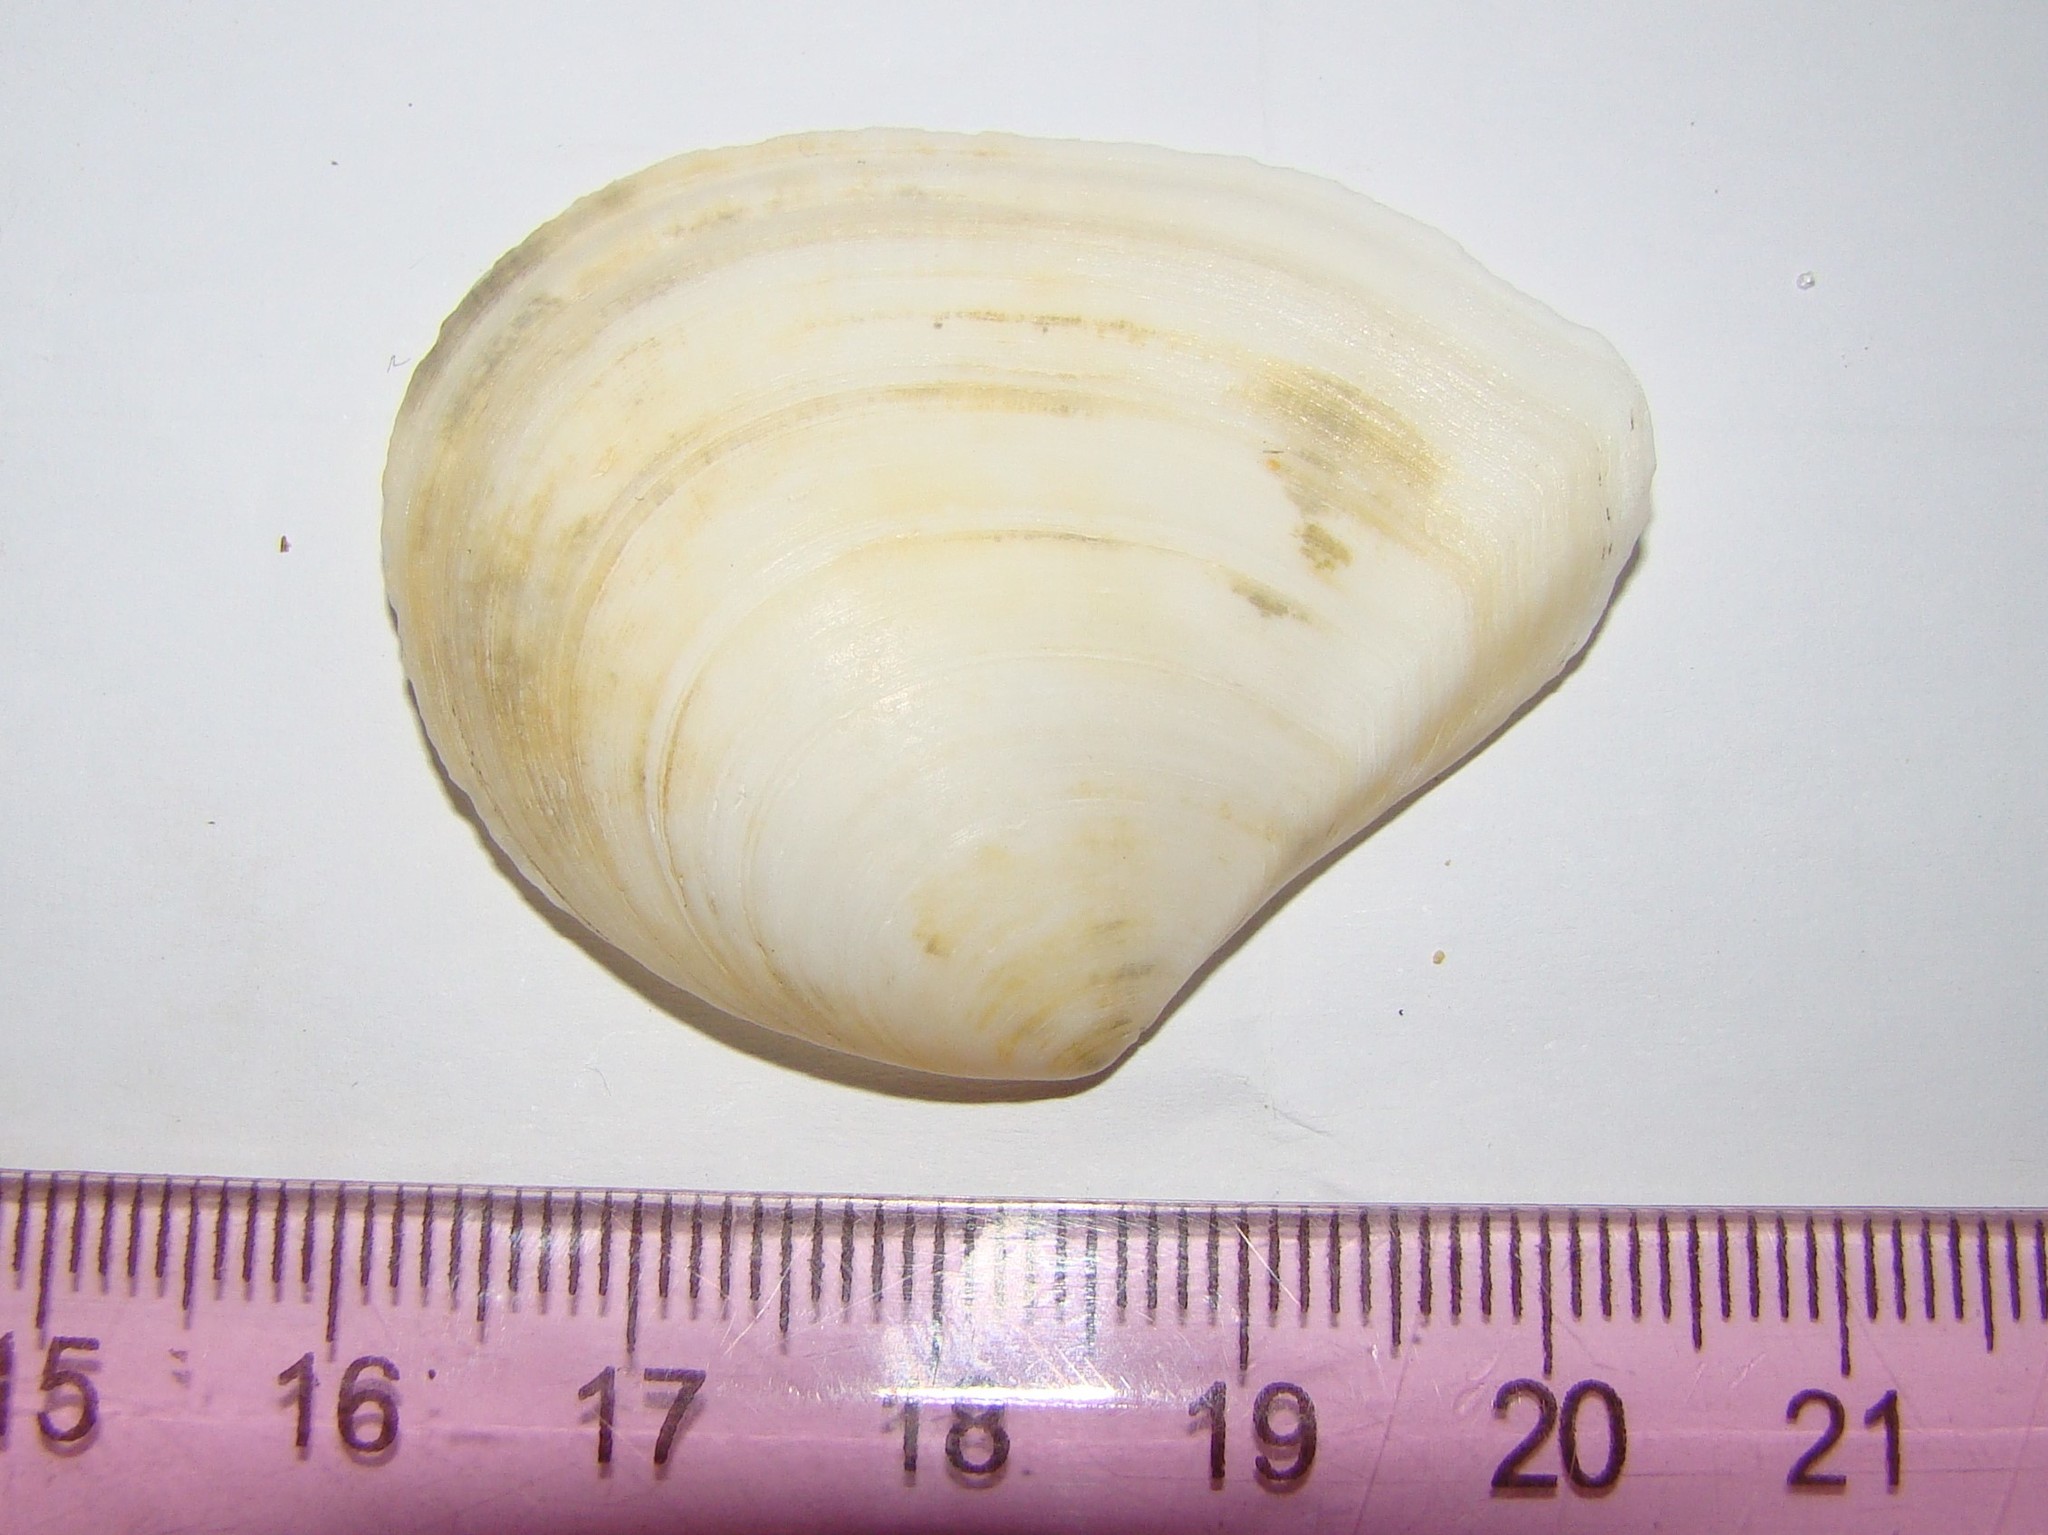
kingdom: Animalia
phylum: Mollusca
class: Bivalvia
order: Cardiida
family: Tellinidae
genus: Macomona
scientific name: Macomona liliana
